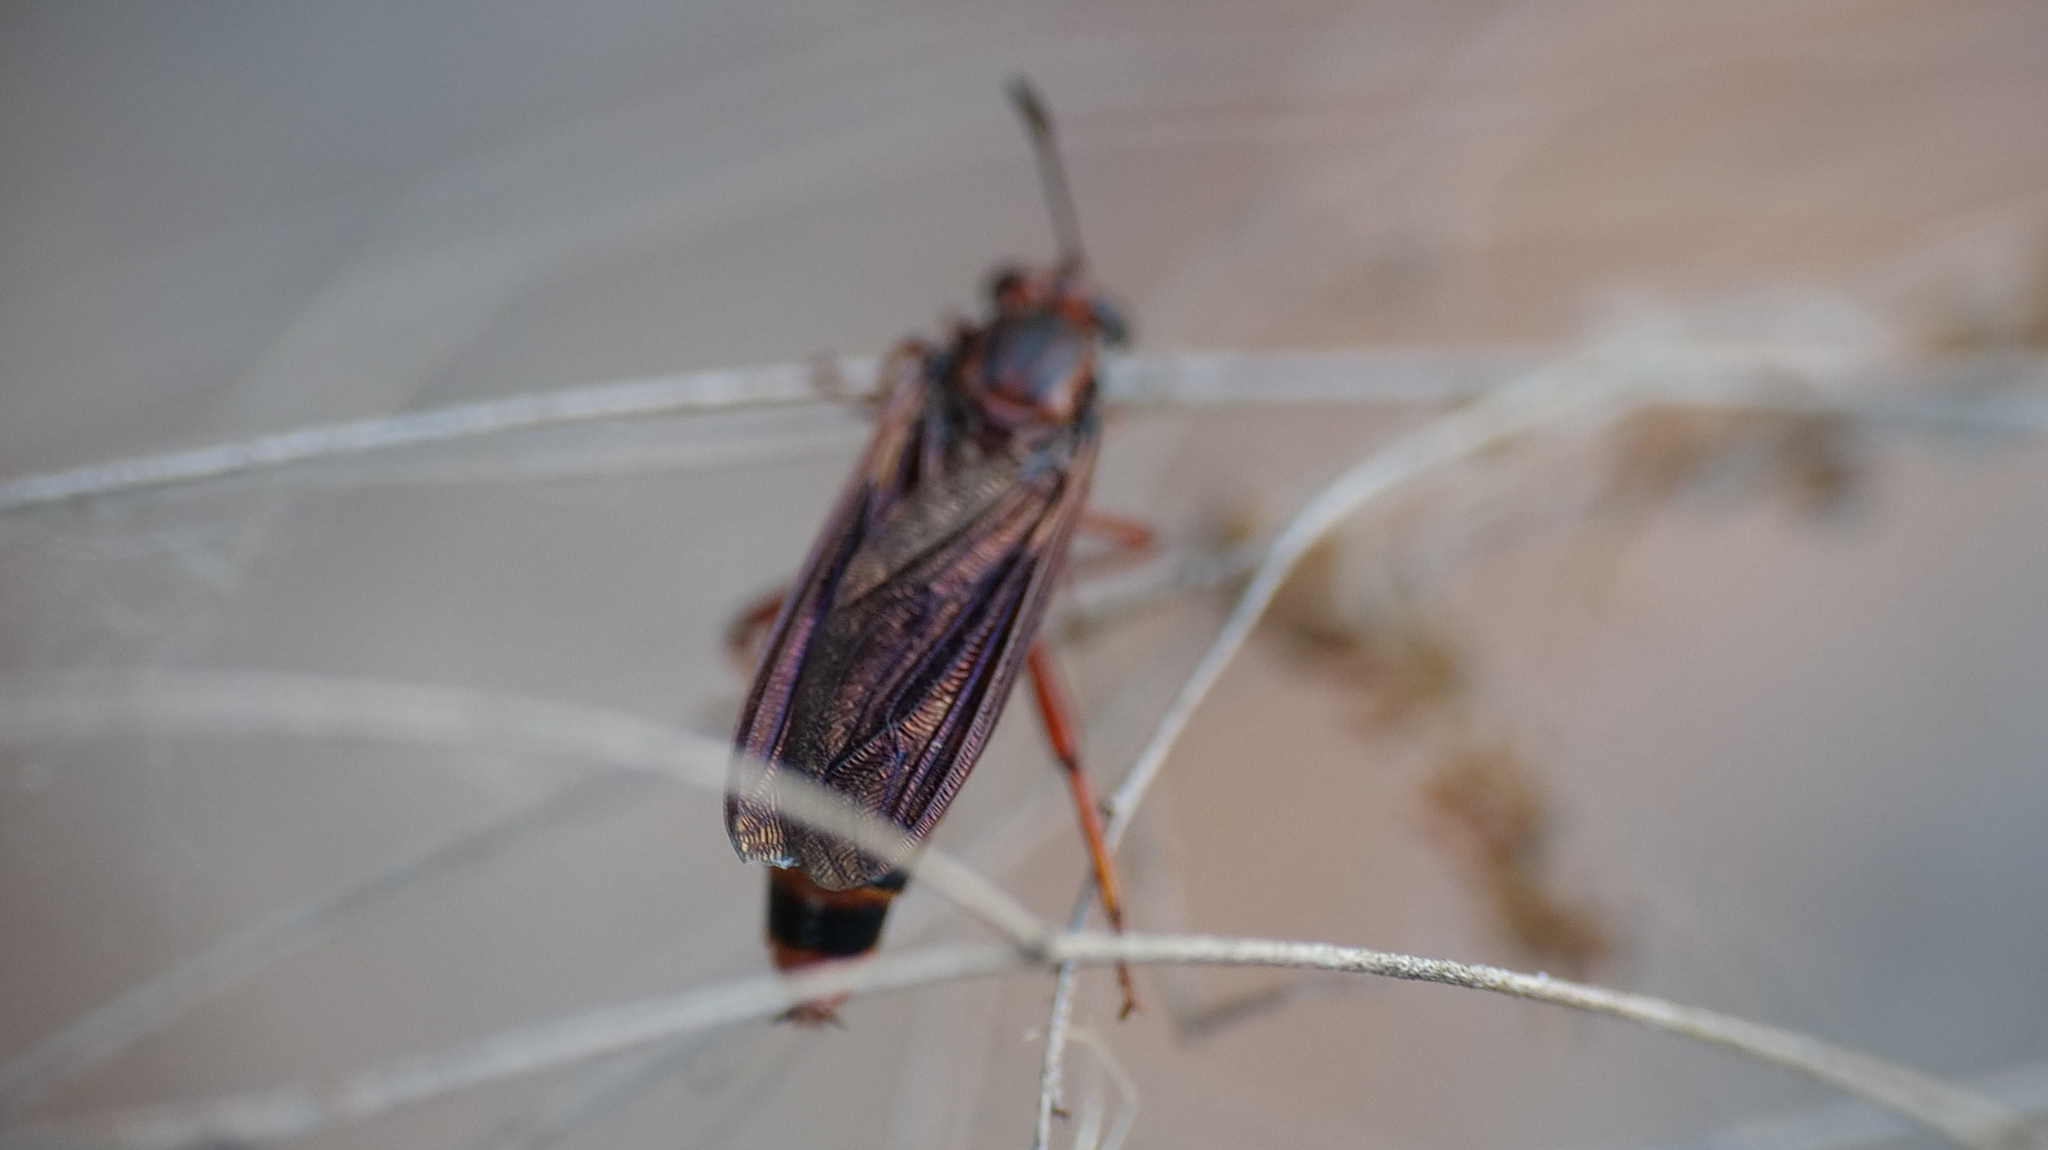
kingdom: Animalia
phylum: Arthropoda
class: Insecta
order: Diptera
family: Mydidae
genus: Phyllomydas
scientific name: Phyllomydas parvulus
